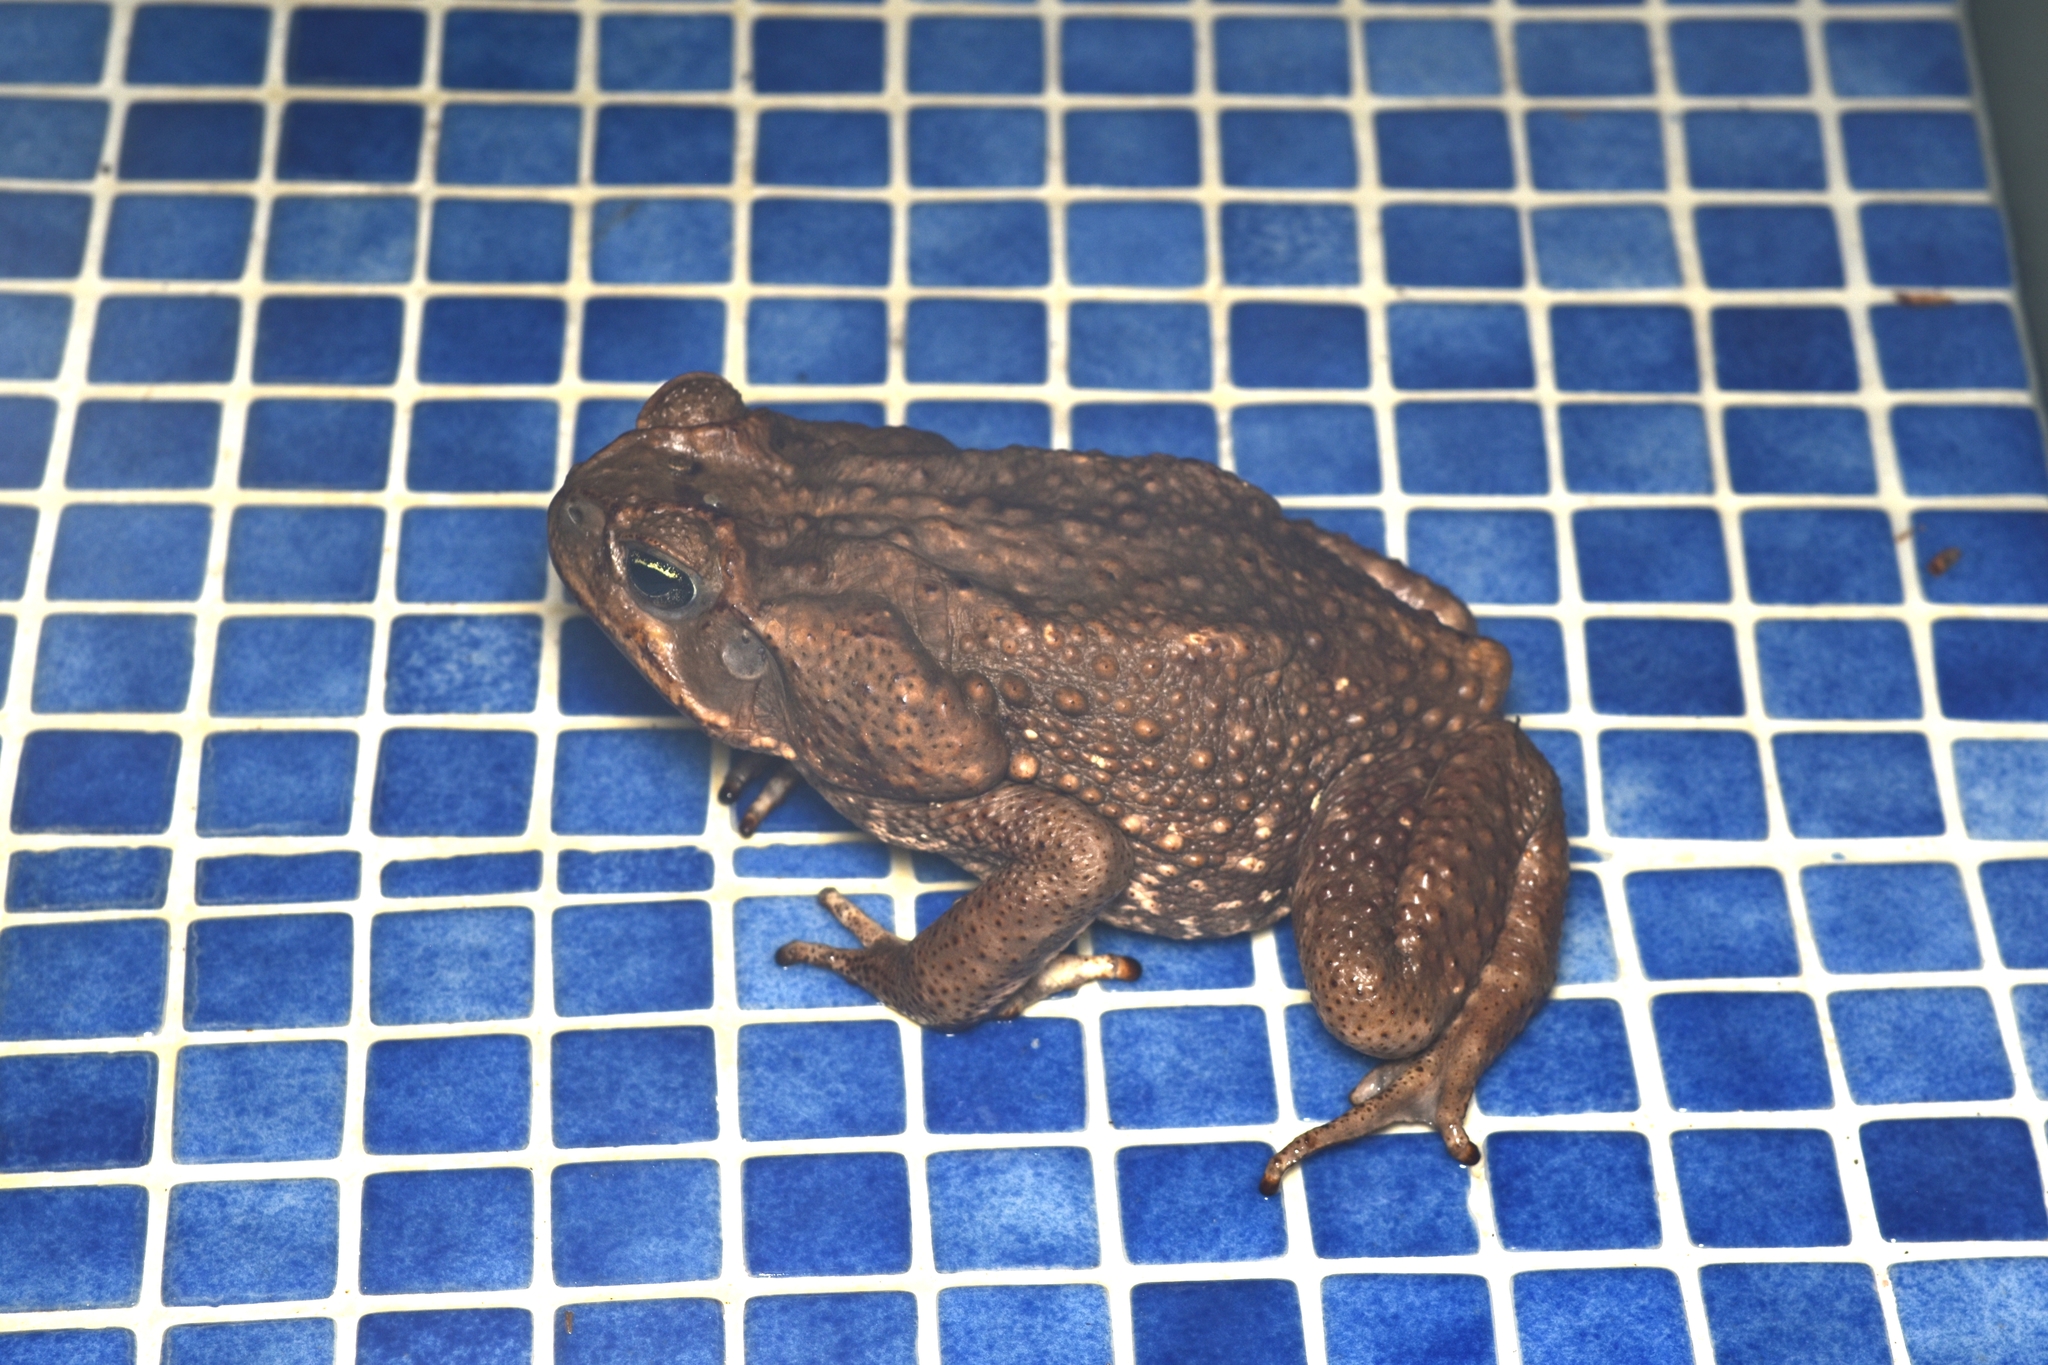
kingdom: Animalia
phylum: Chordata
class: Amphibia
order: Anura
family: Bufonidae
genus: Rhinella
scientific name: Rhinella horribilis
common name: Mesoamerican cane toad
